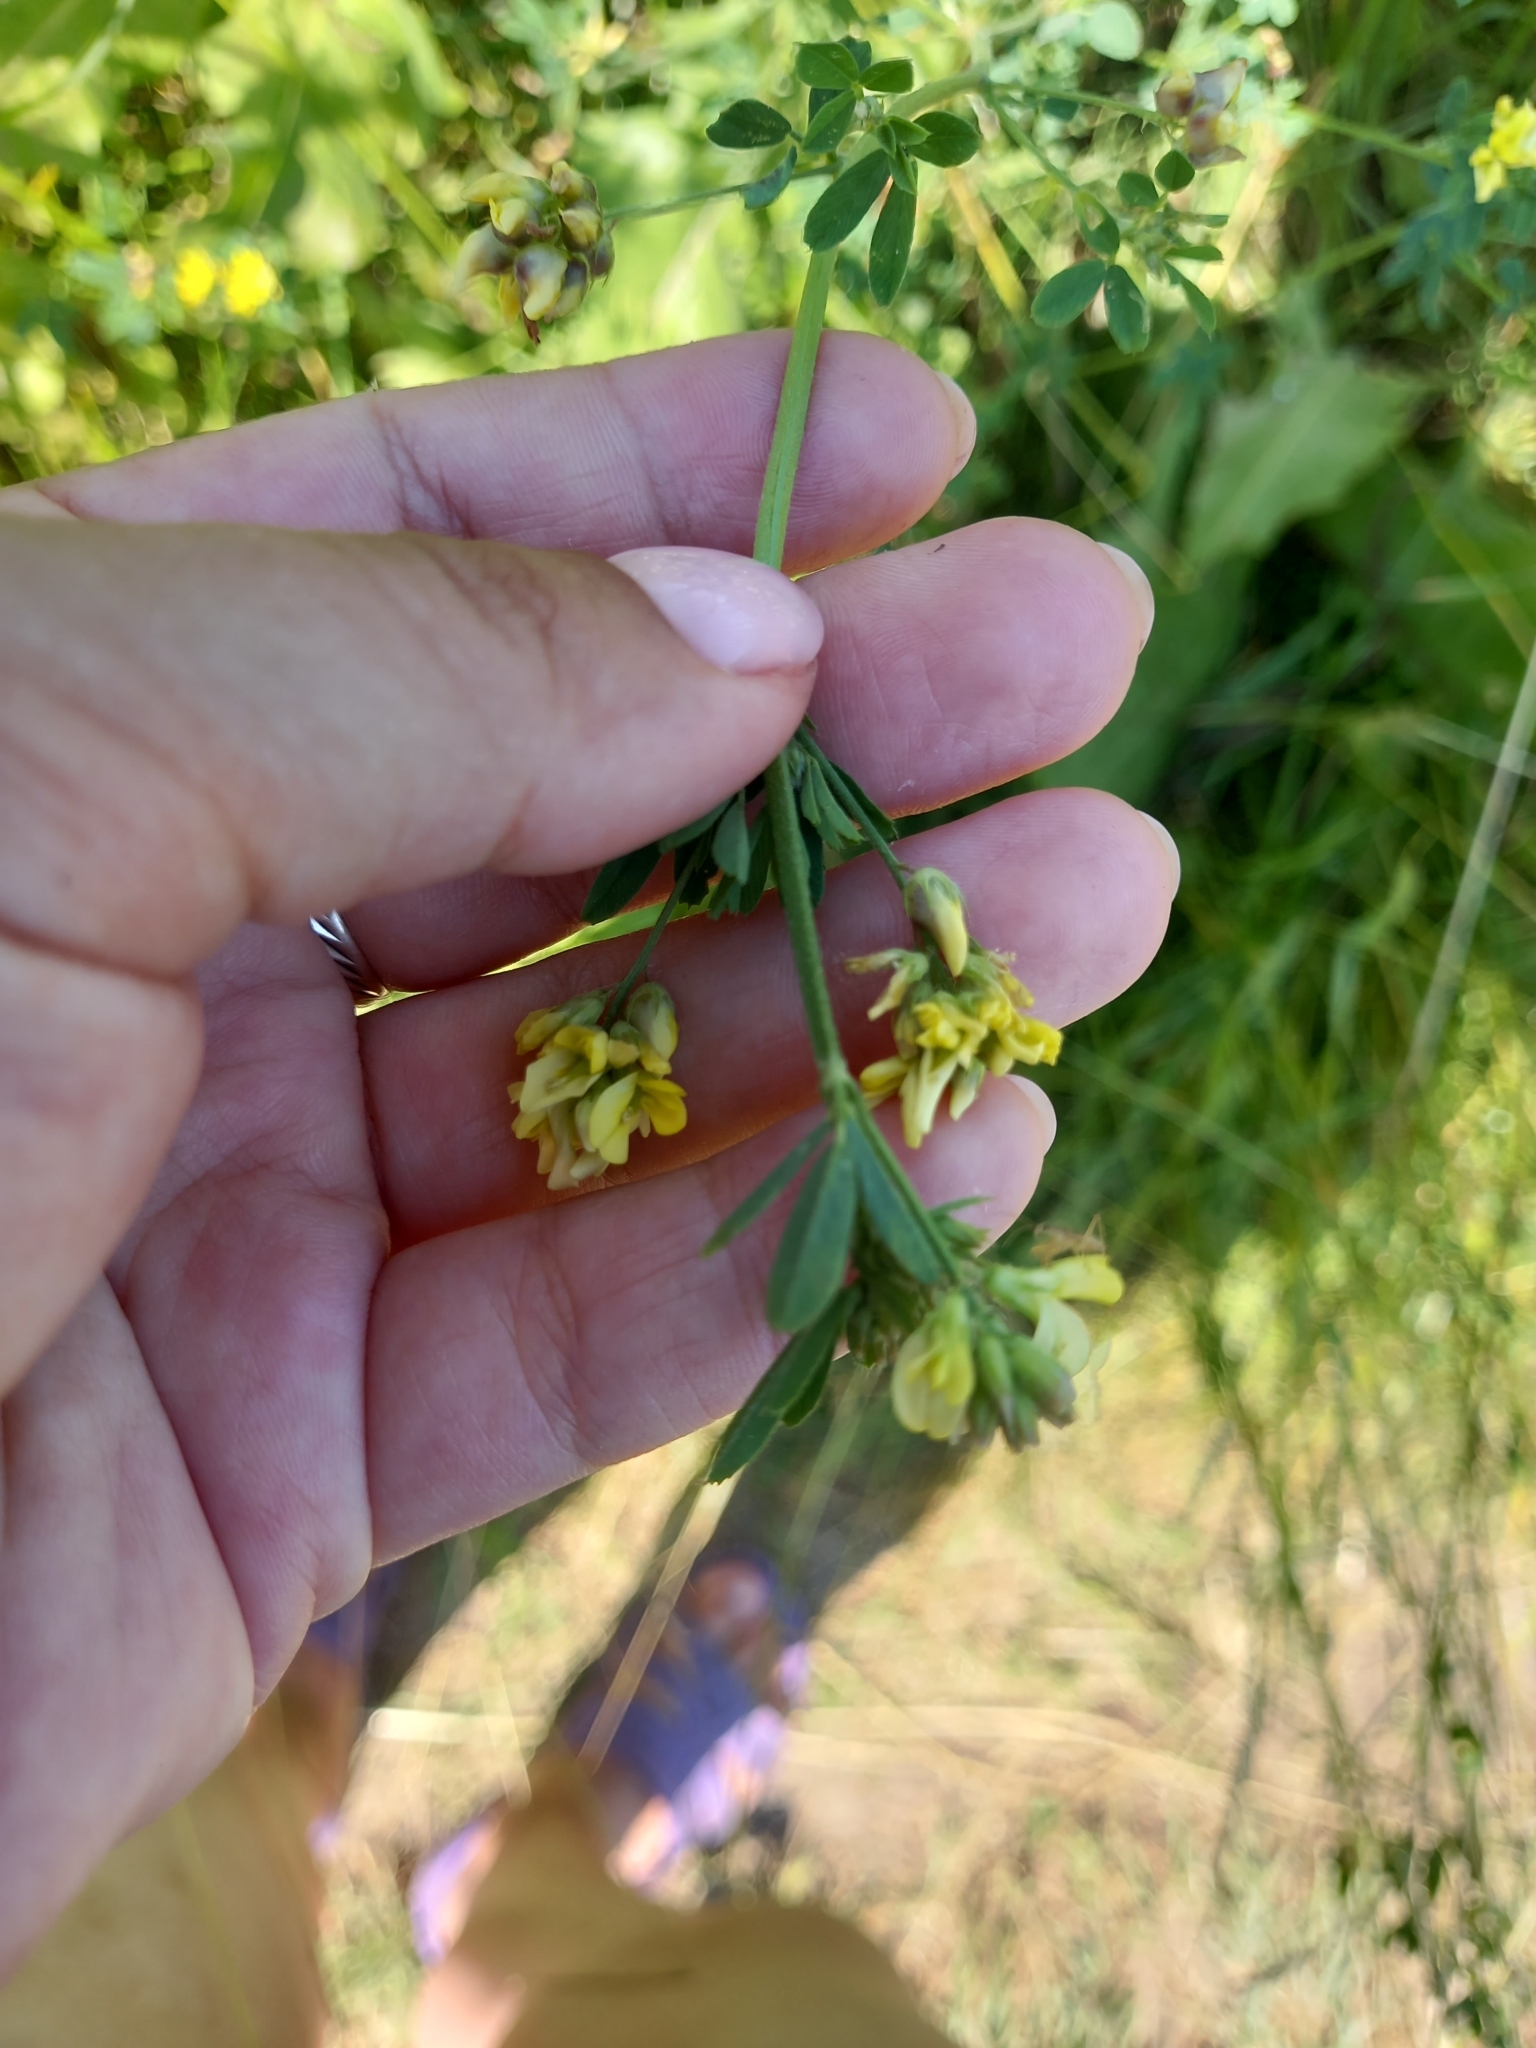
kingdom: Plantae
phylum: Tracheophyta
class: Magnoliopsida
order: Fabales
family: Fabaceae
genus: Medicago
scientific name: Medicago falcata
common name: Sickle medick
